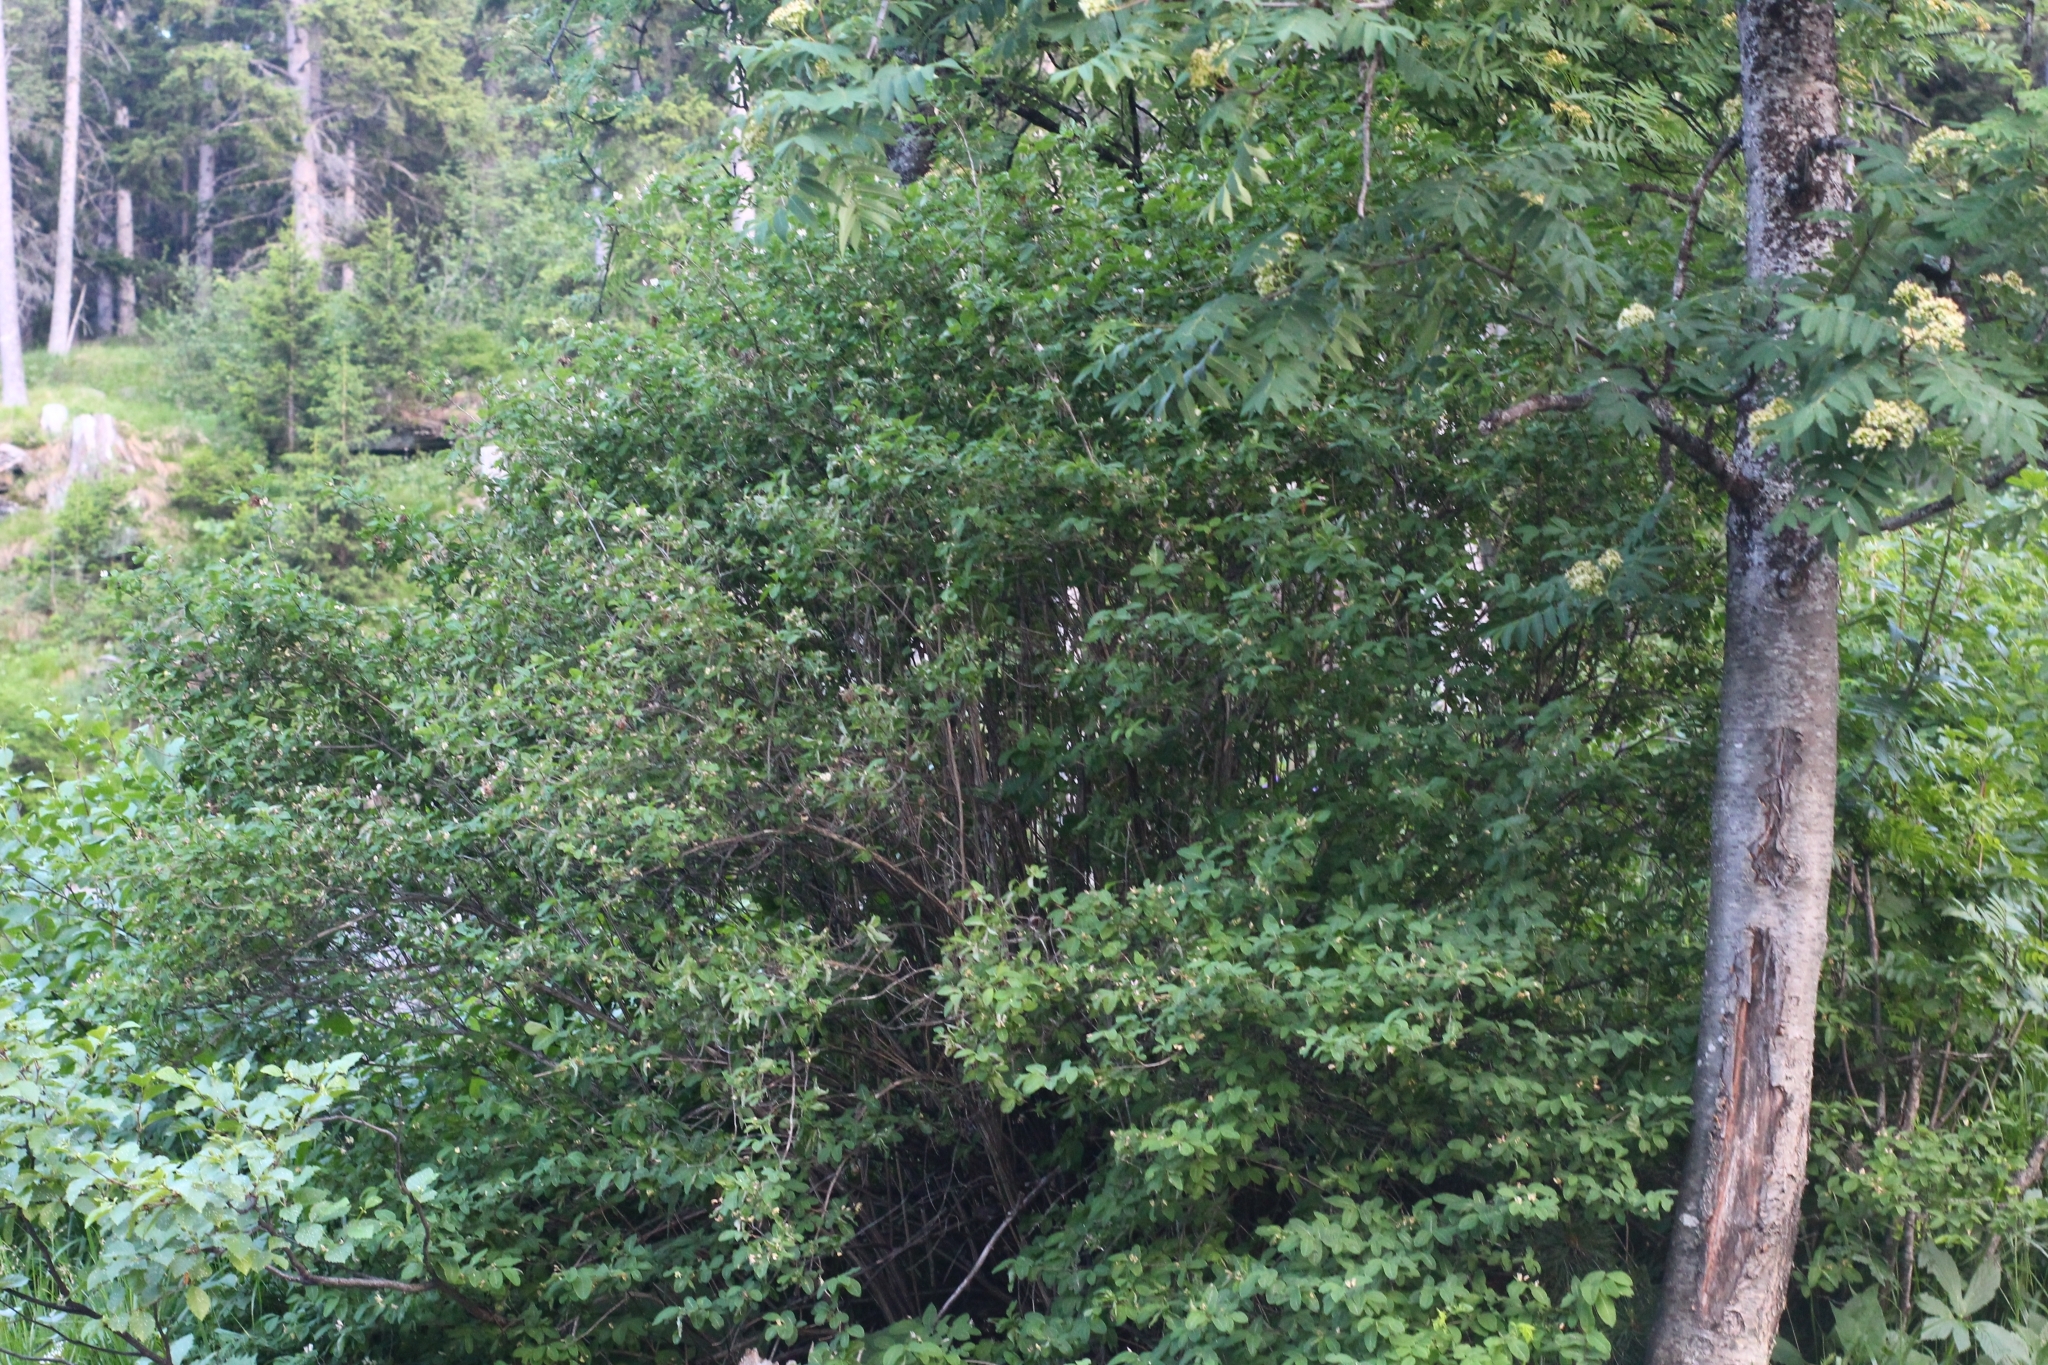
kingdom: Plantae
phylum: Tracheophyta
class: Magnoliopsida
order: Dipsacales
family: Caprifoliaceae
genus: Lonicera
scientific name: Lonicera nigra
